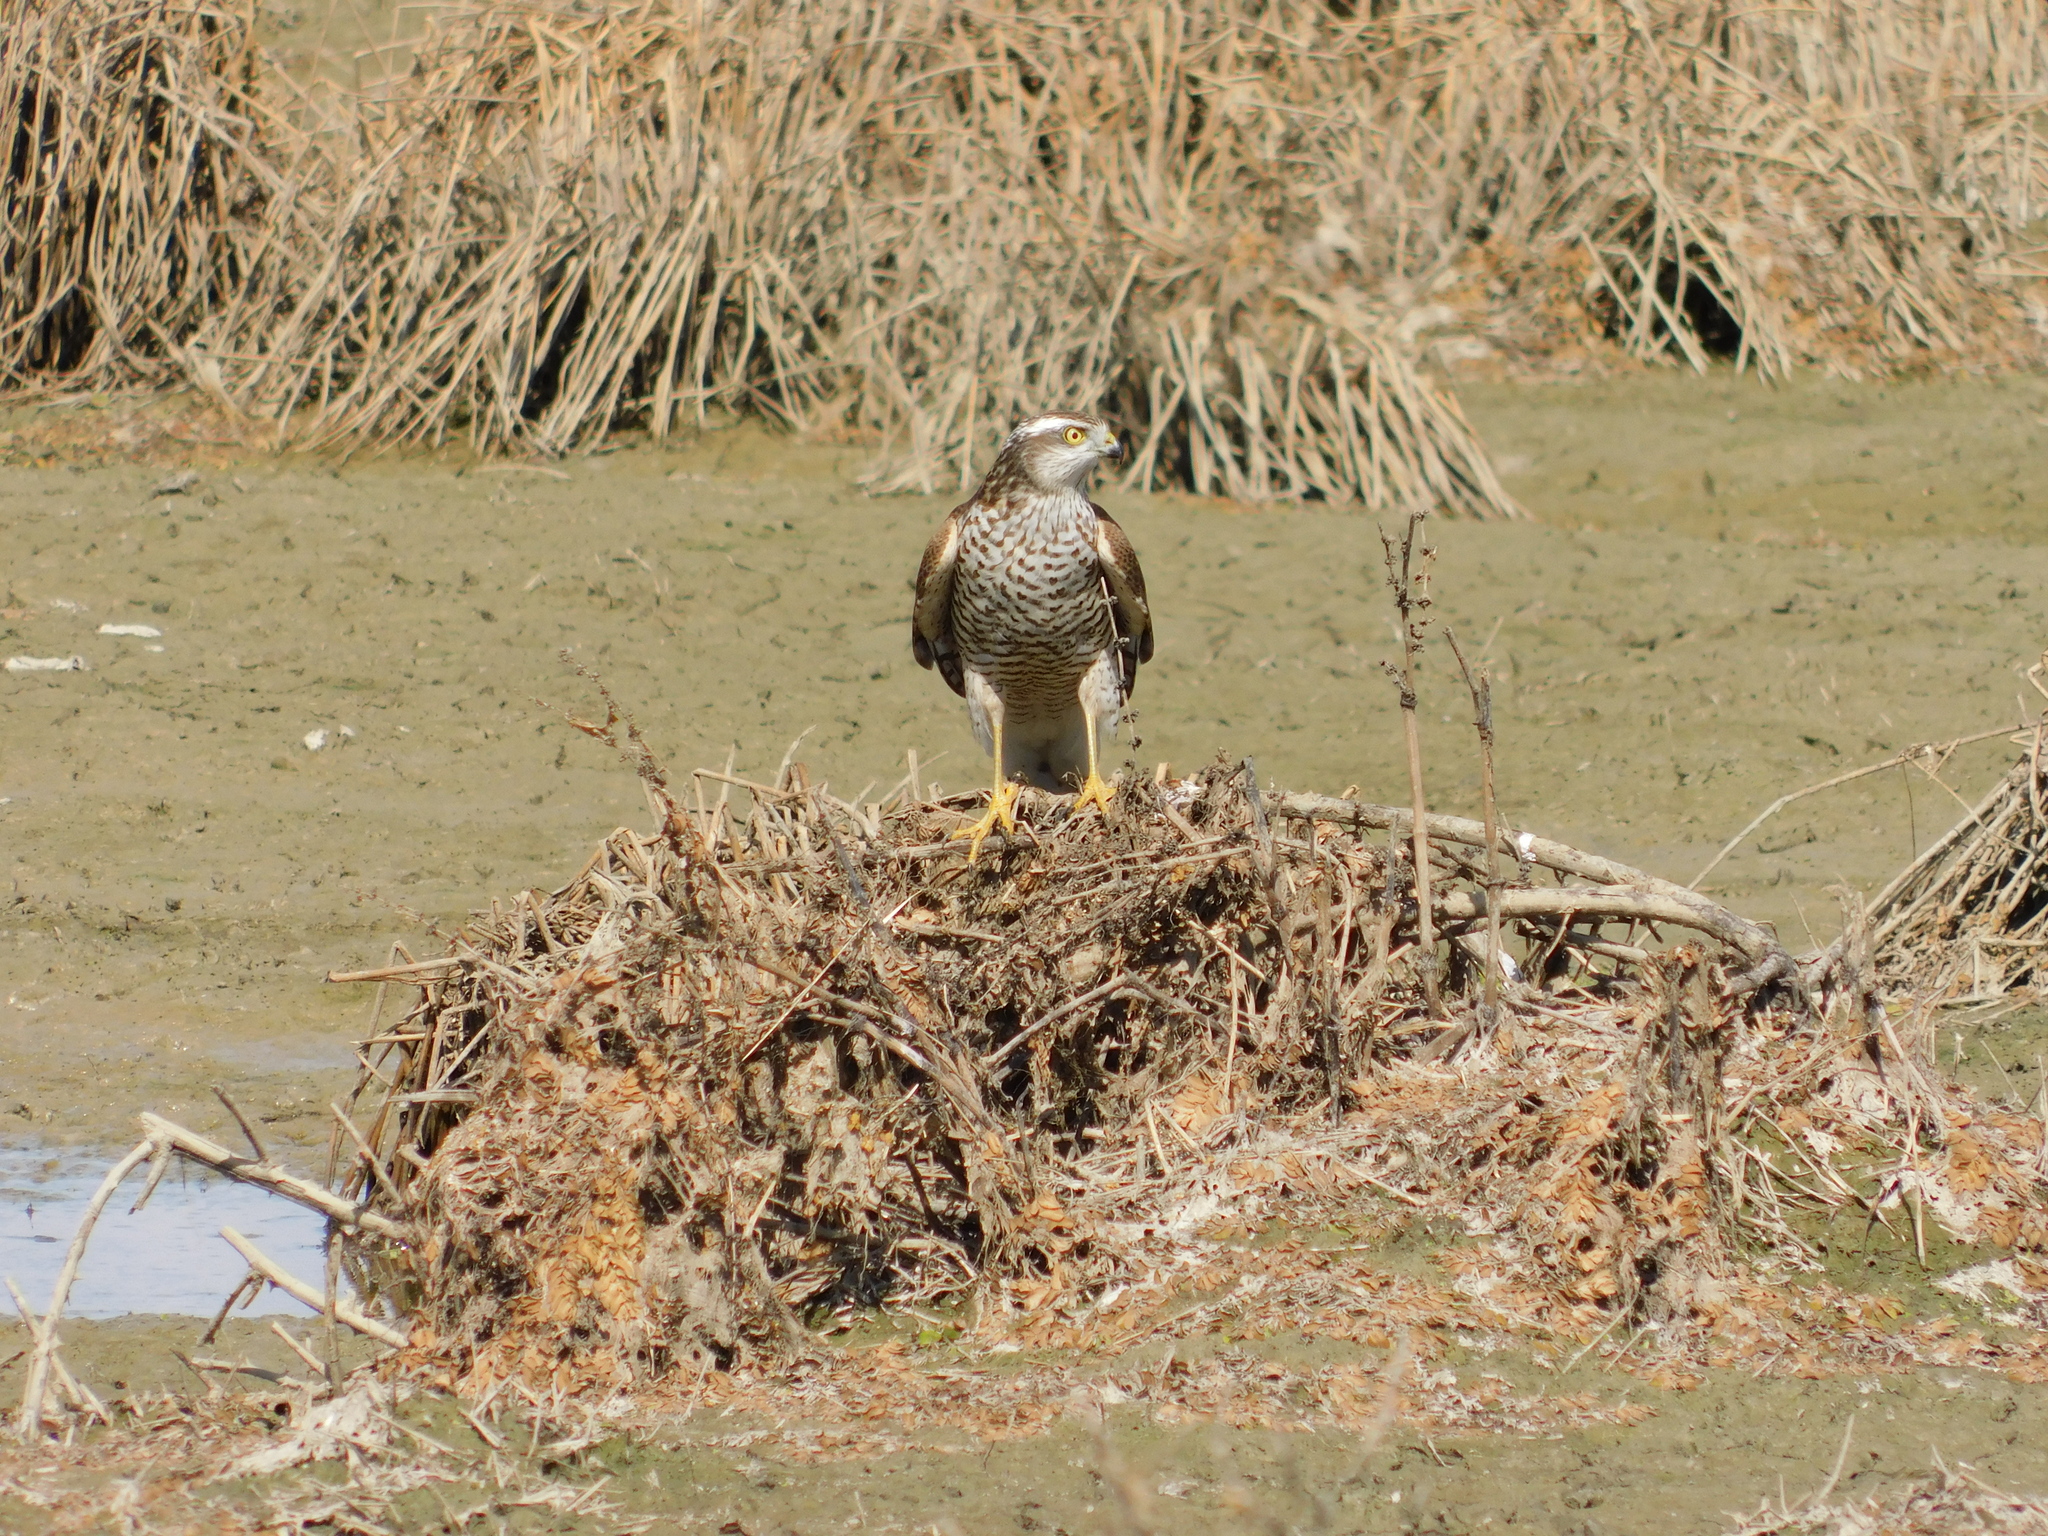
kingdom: Animalia
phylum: Chordata
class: Aves
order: Accipitriformes
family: Accipitridae
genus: Accipiter
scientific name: Accipiter nisus
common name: Eurasian sparrowhawk
